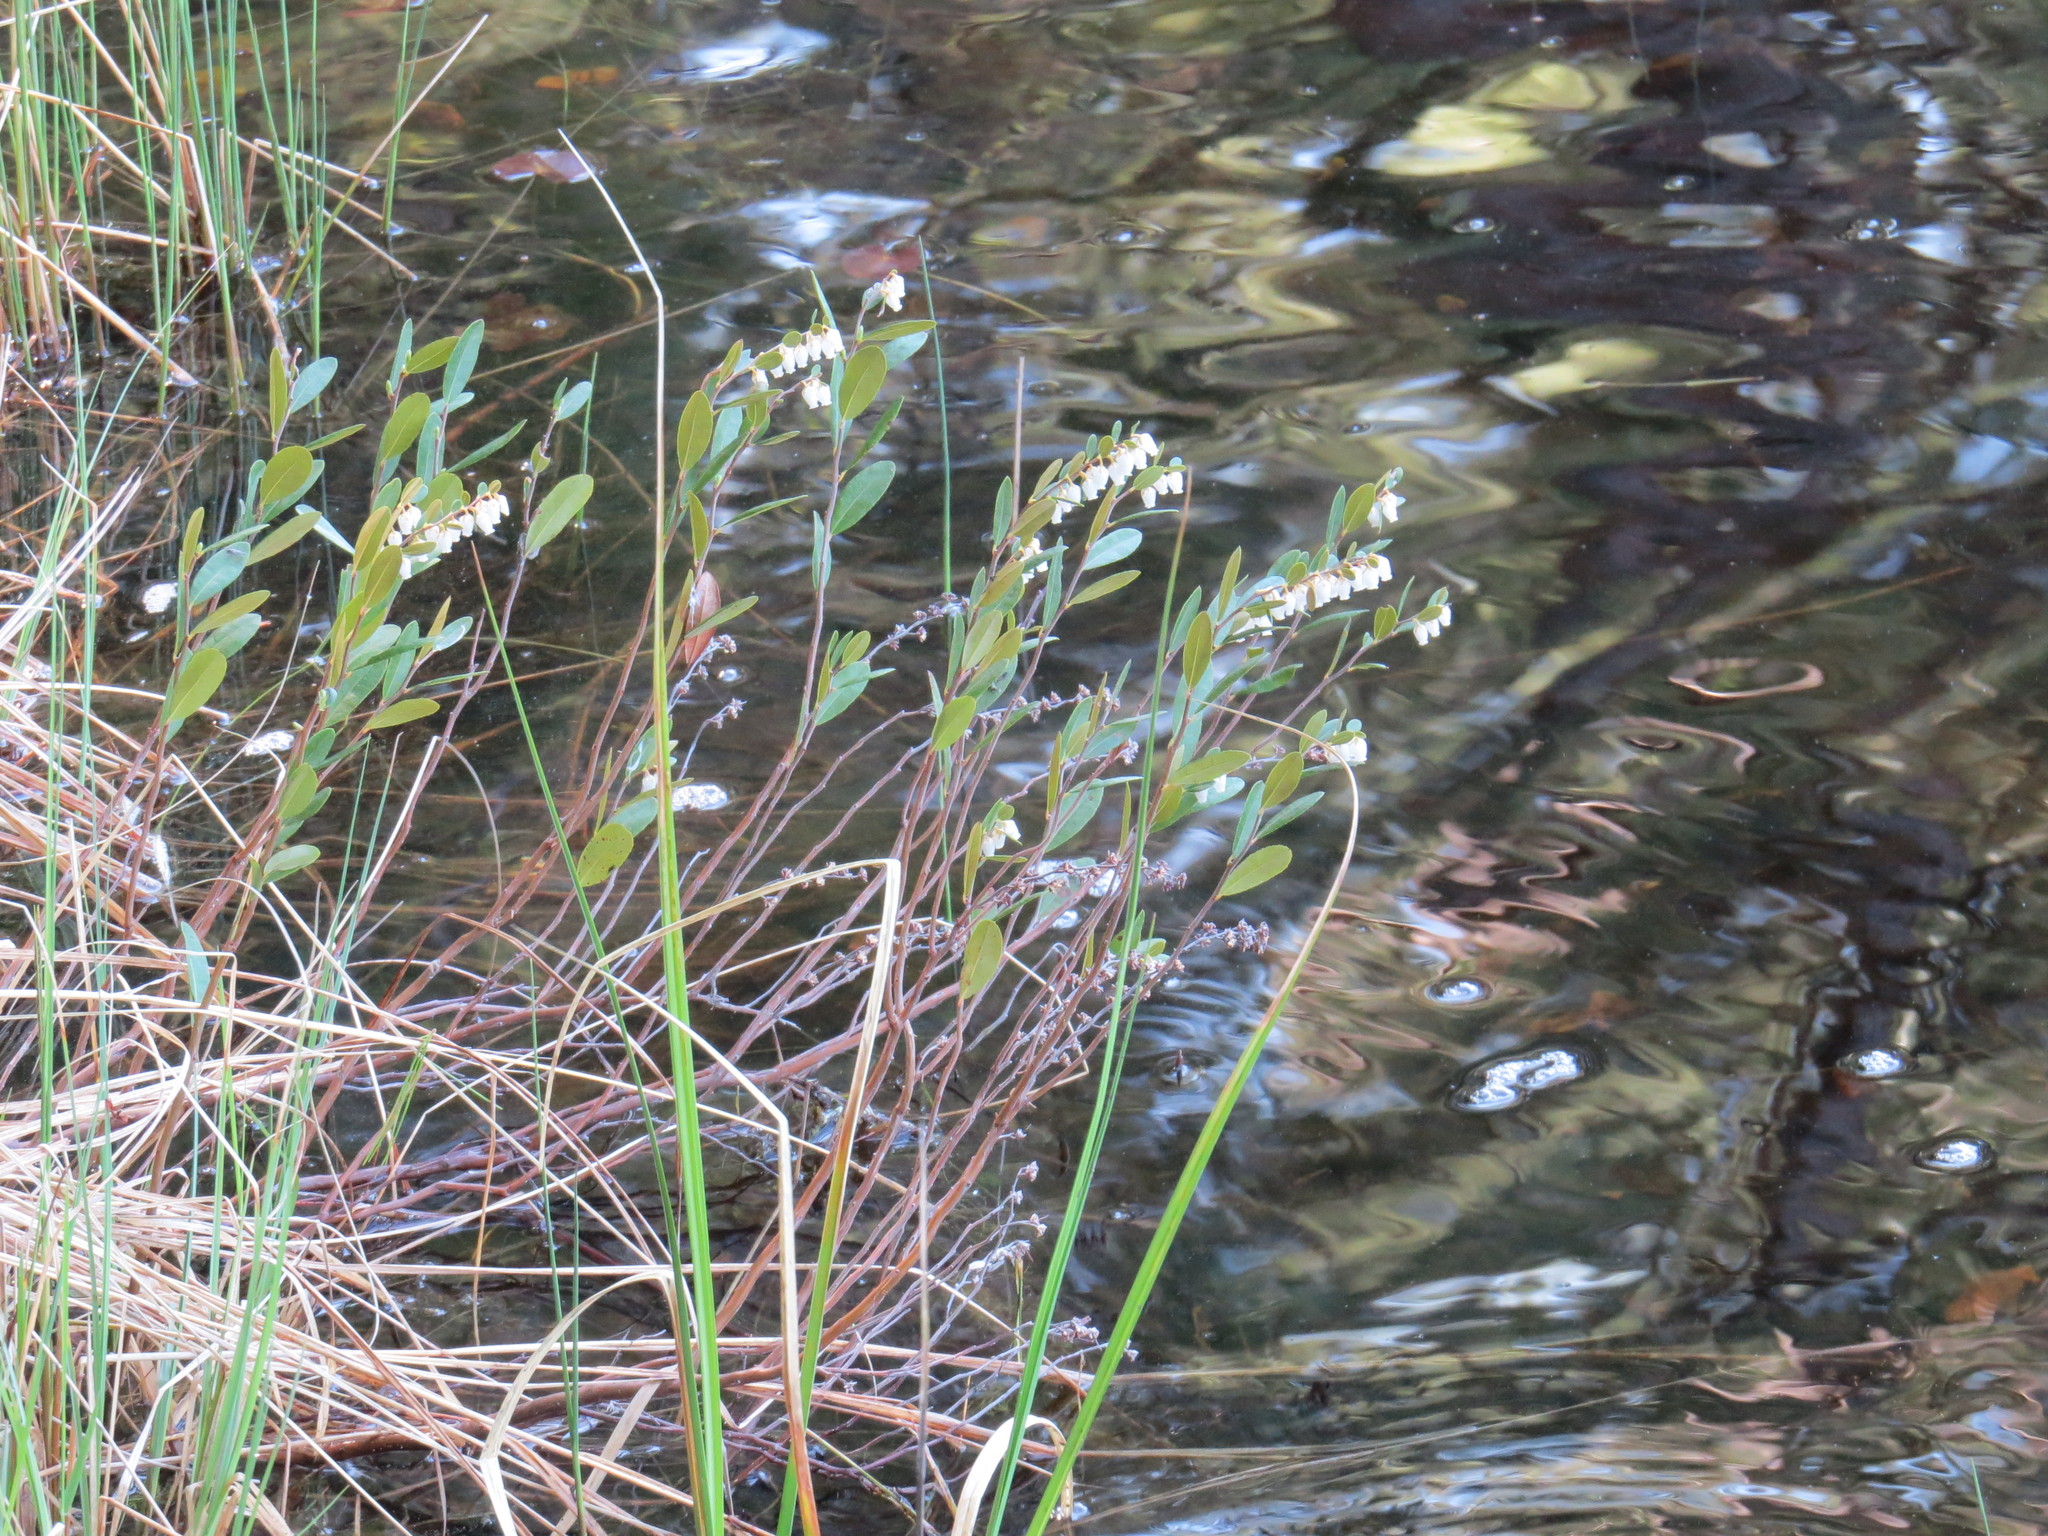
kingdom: Plantae
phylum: Tracheophyta
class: Magnoliopsida
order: Ericales
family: Ericaceae
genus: Chamaedaphne
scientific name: Chamaedaphne calyculata
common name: Leatherleaf
